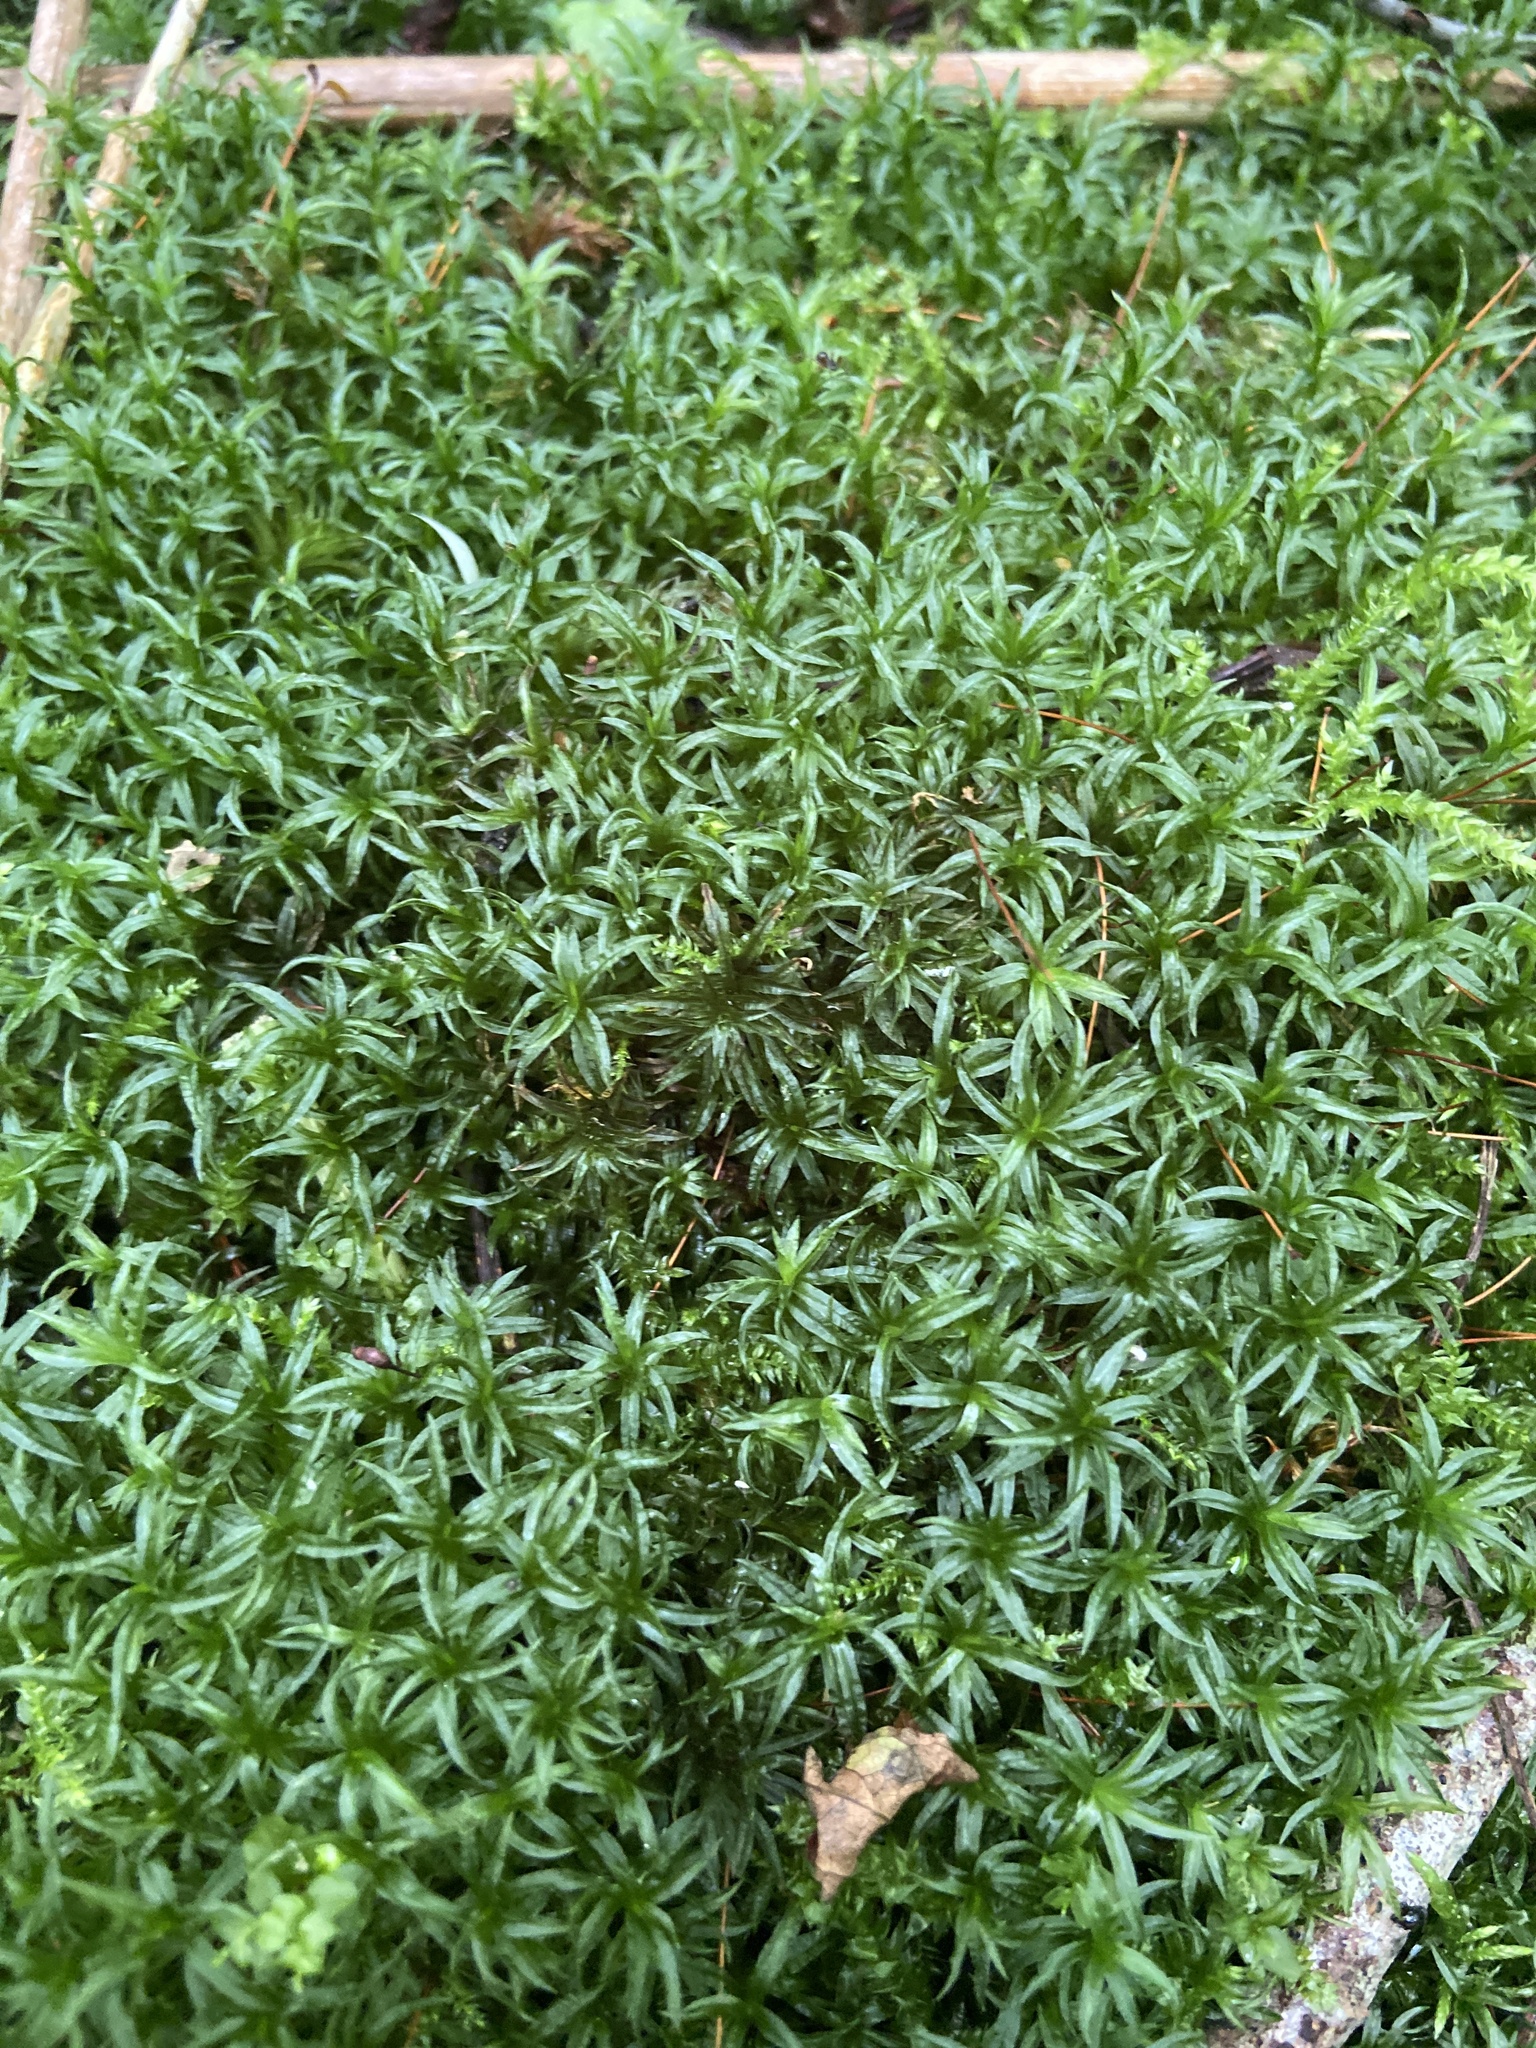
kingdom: Plantae
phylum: Bryophyta
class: Polytrichopsida
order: Polytrichales
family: Polytrichaceae
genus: Atrichum
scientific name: Atrichum undulatum
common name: Common smoothcap
